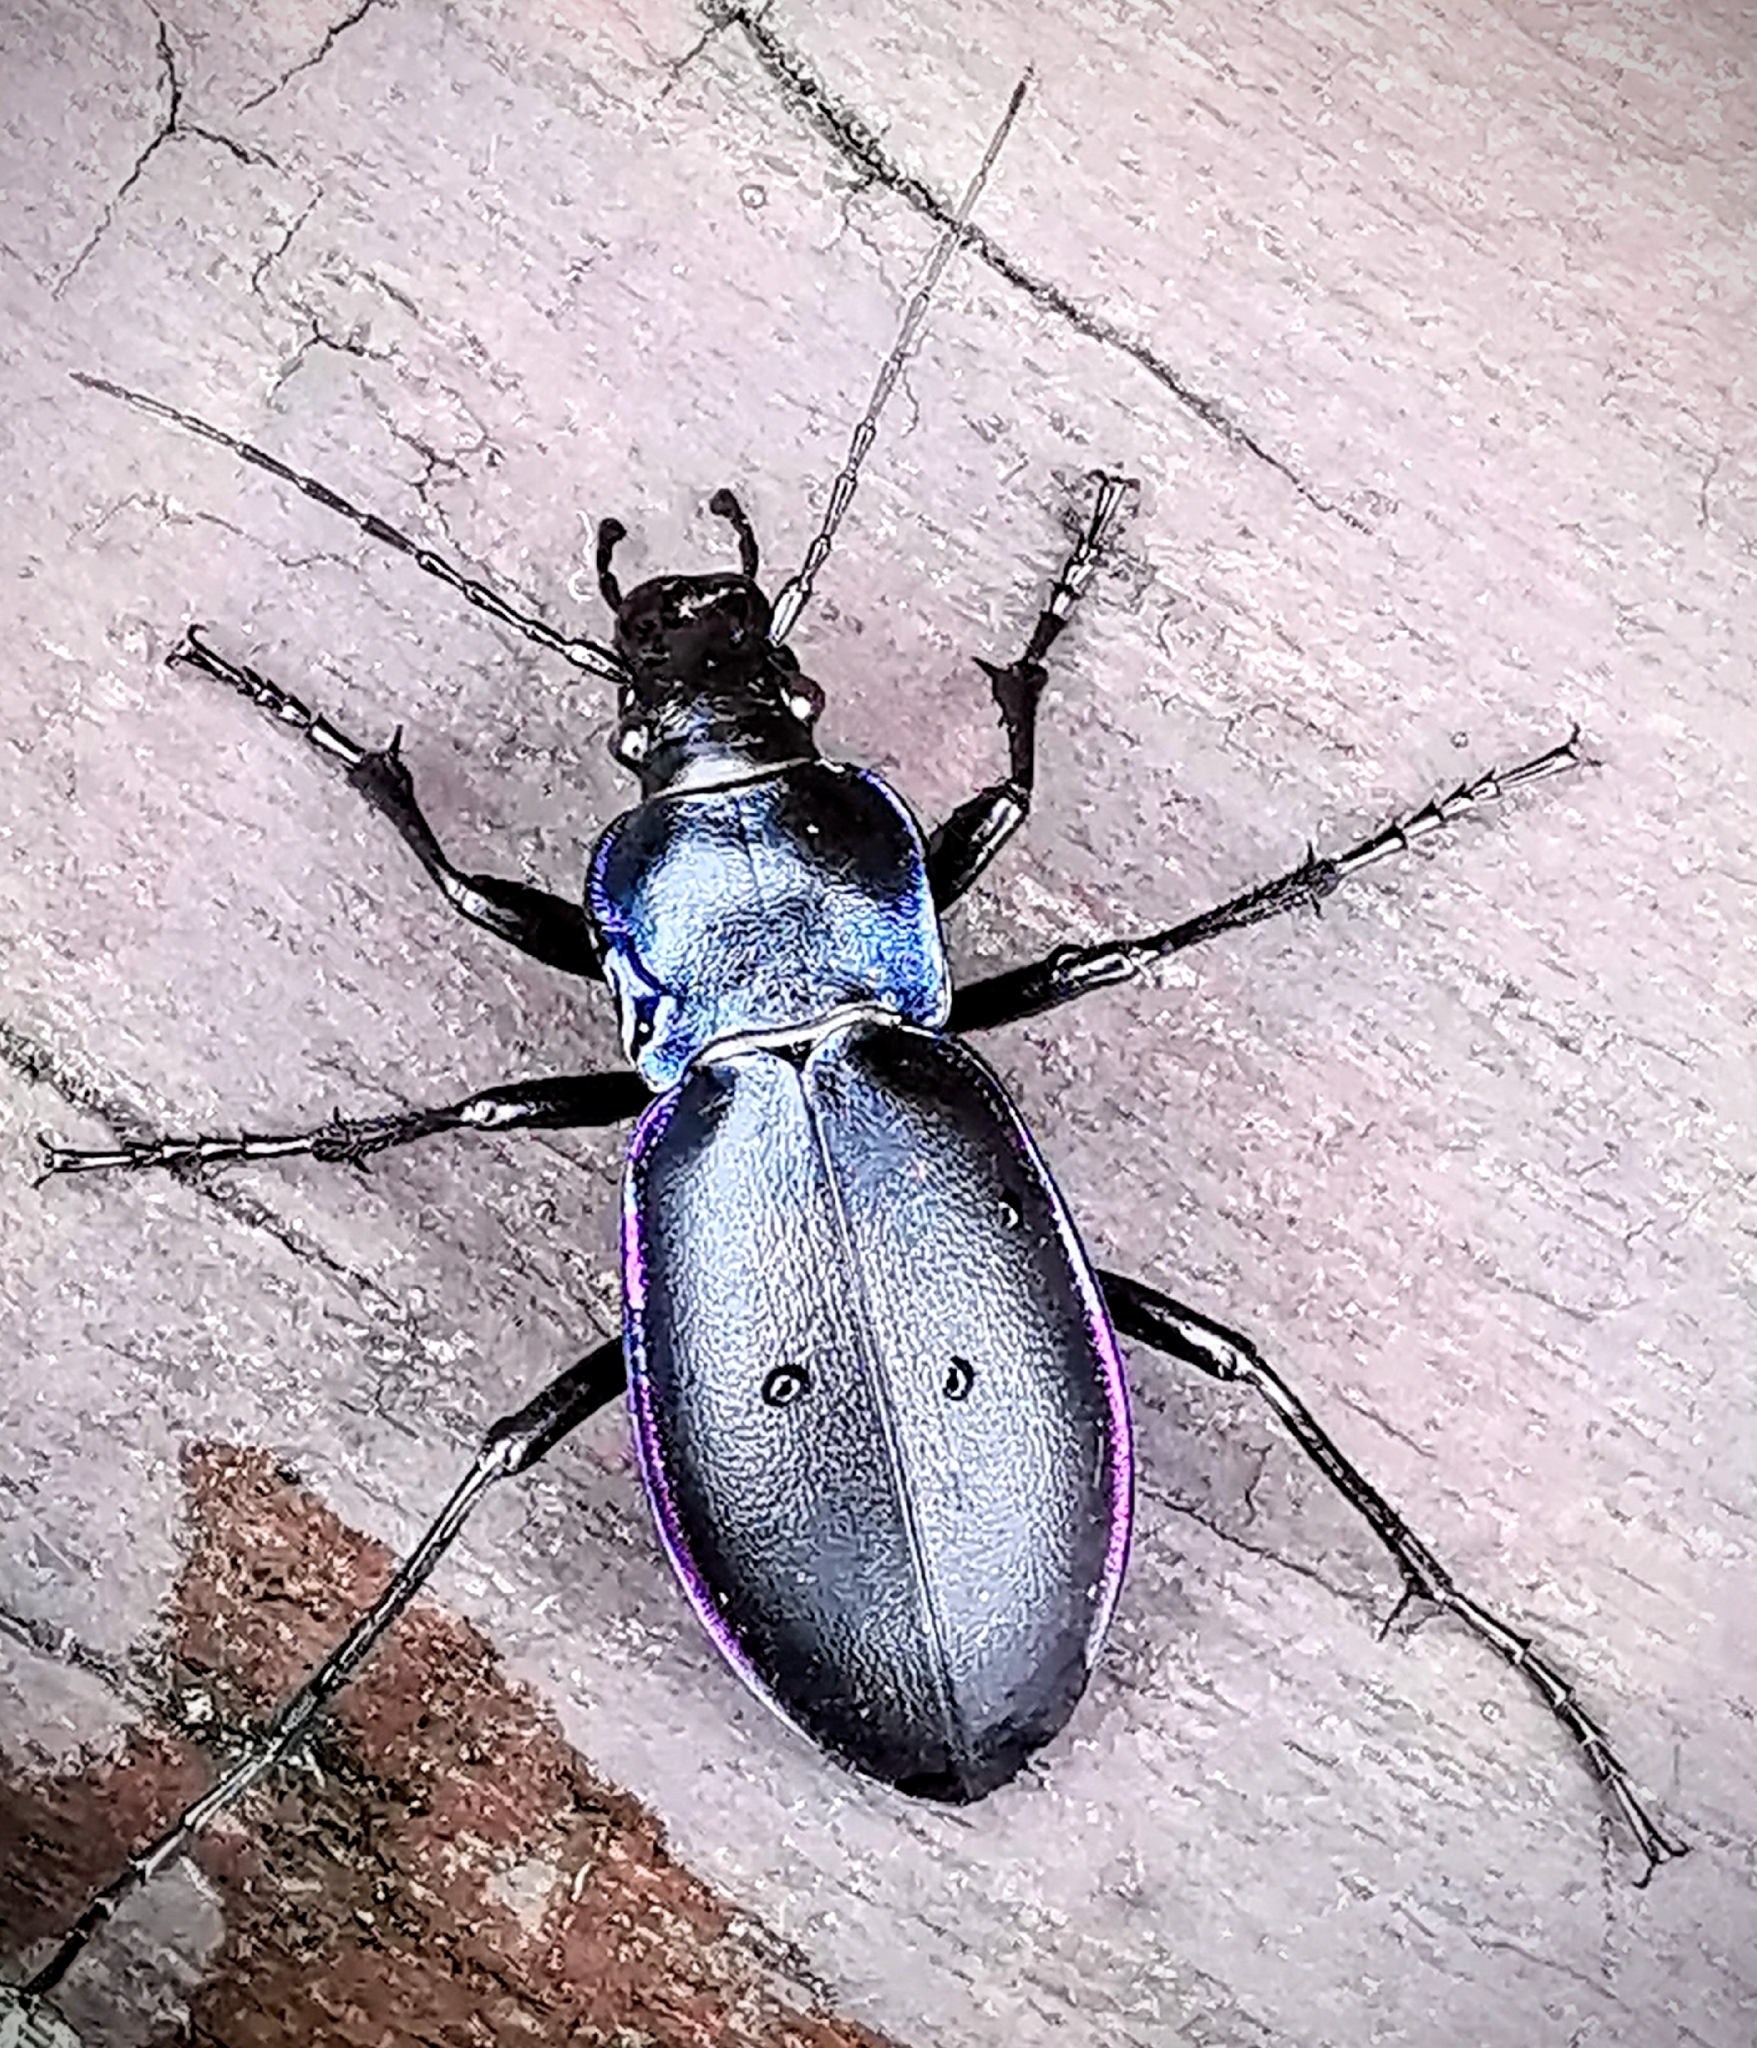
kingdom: Animalia
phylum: Arthropoda
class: Insecta
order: Coleoptera
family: Carabidae
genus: Carabus
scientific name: Carabus violaceus
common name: Violet ground beetle
